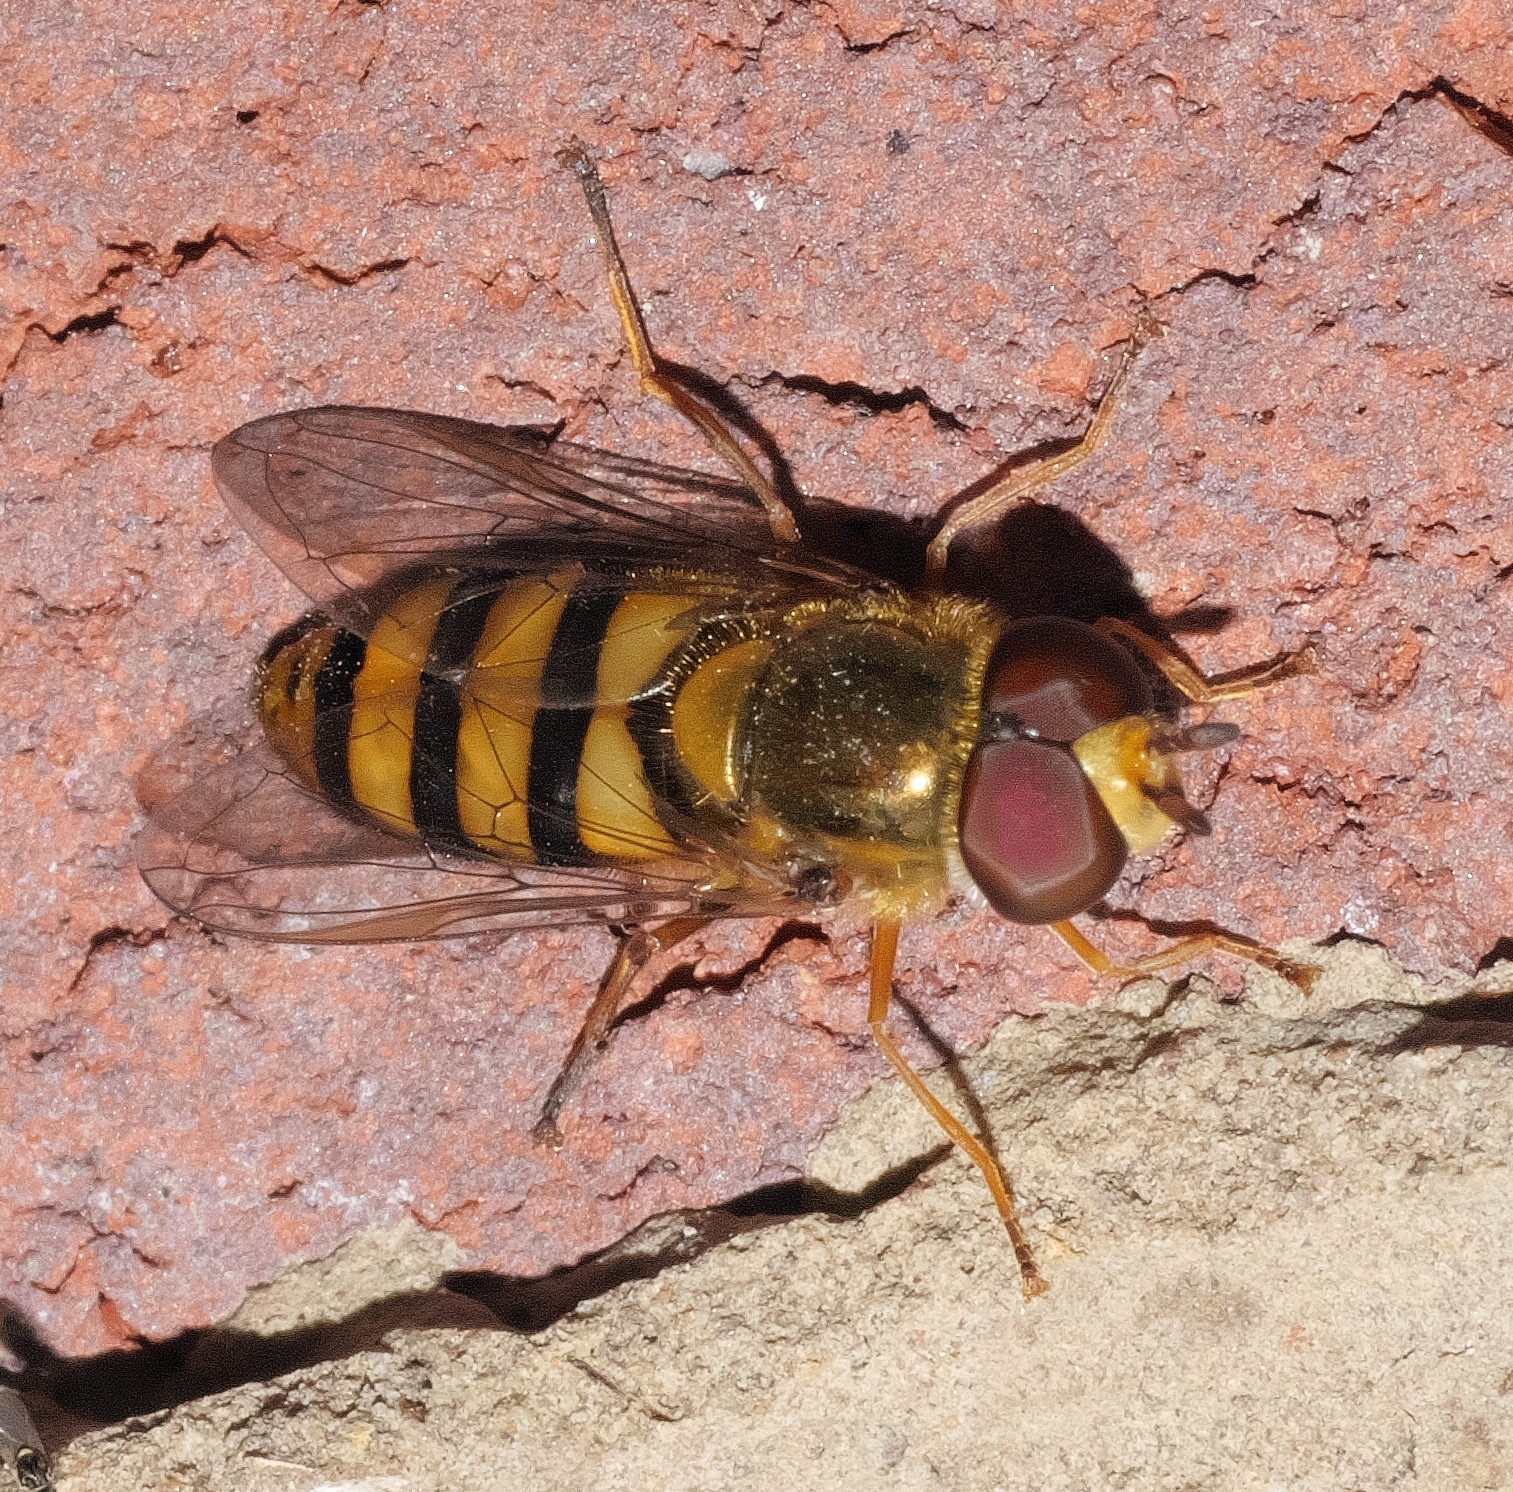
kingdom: Animalia
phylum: Arthropoda
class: Insecta
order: Diptera
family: Syrphidae
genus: Eupeodes
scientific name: Eupeodes
